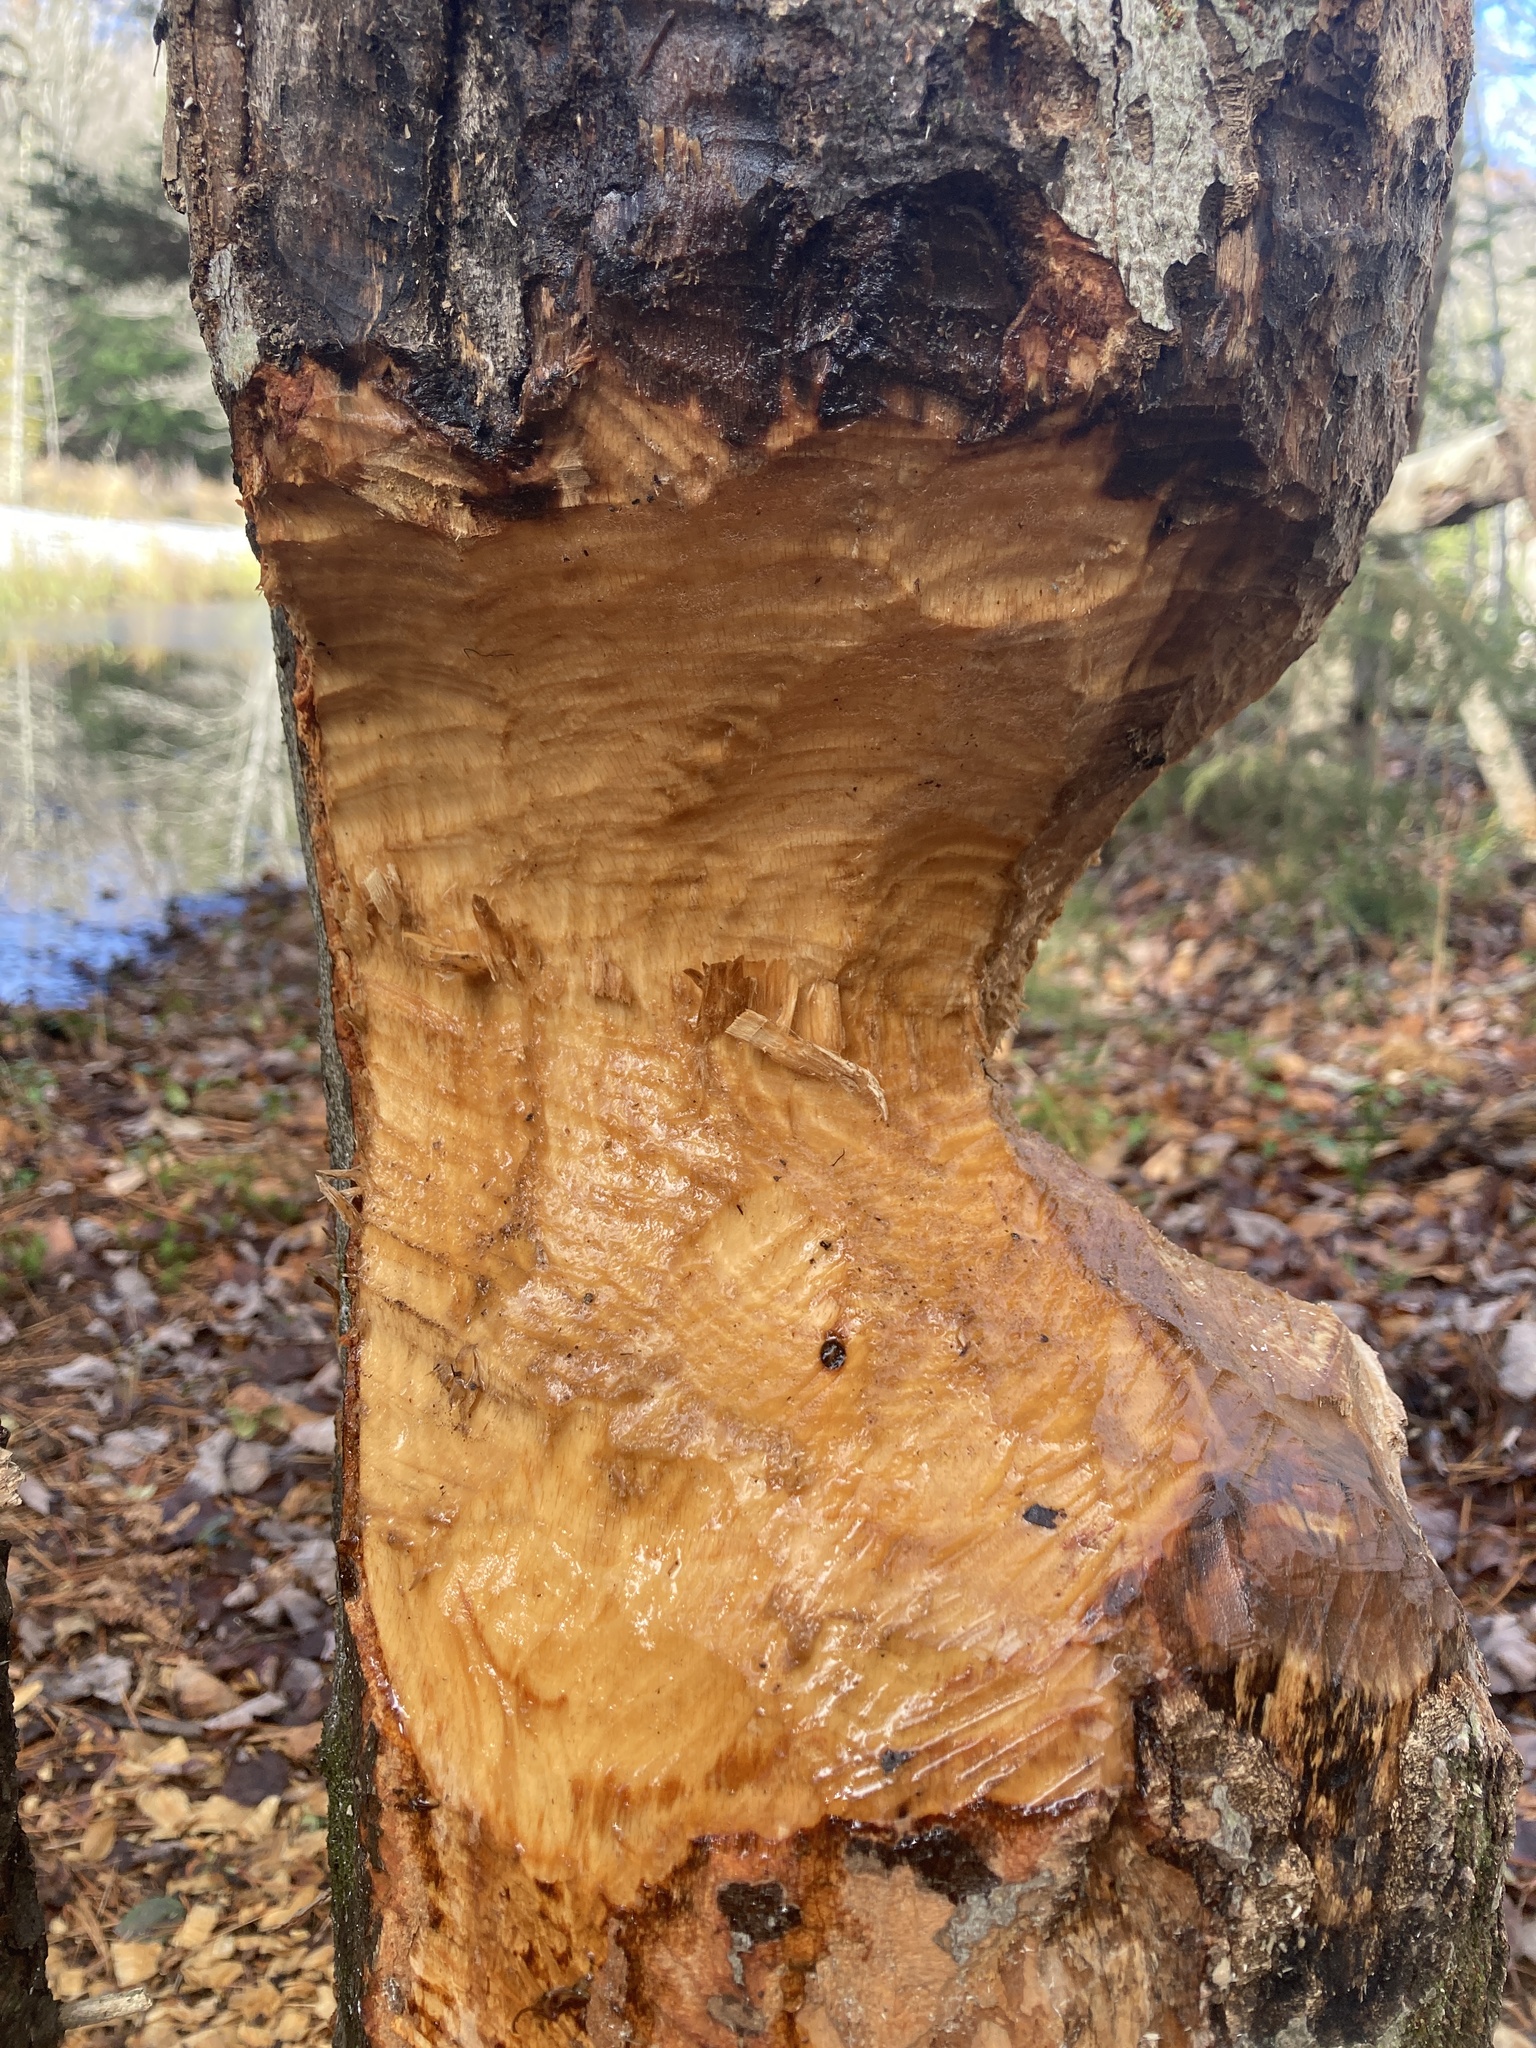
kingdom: Animalia
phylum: Chordata
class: Mammalia
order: Rodentia
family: Castoridae
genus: Castor
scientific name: Castor canadensis
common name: American beaver
